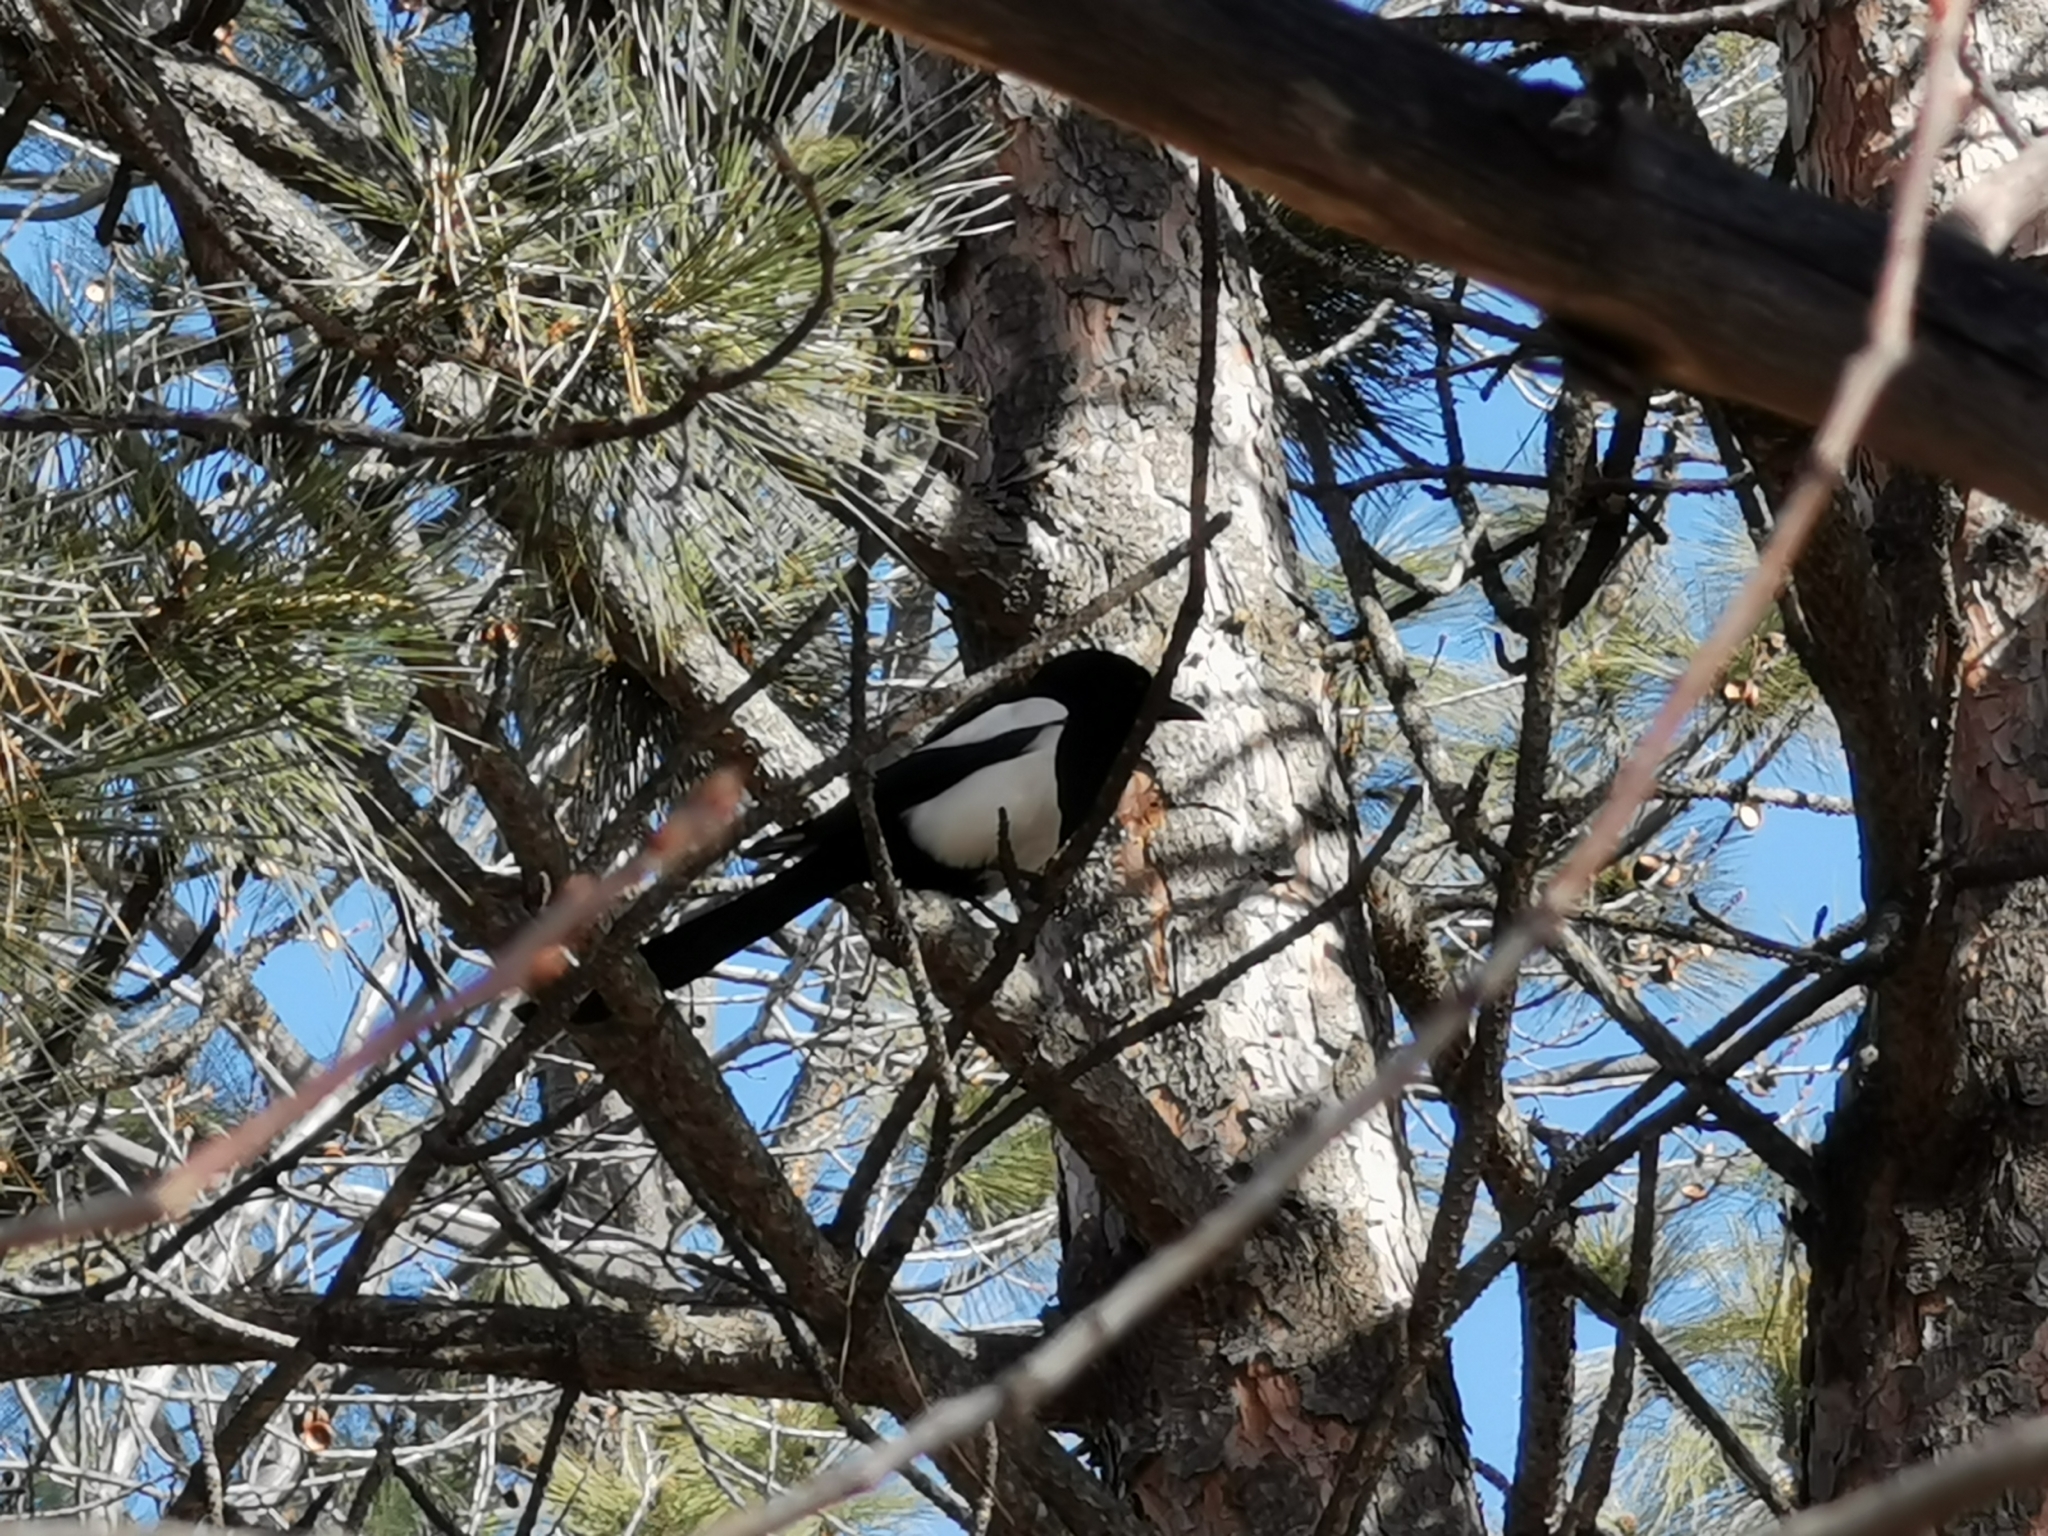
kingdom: Animalia
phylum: Chordata
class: Aves
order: Passeriformes
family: Corvidae
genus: Pica
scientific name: Pica hudsonia
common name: Black-billed magpie
